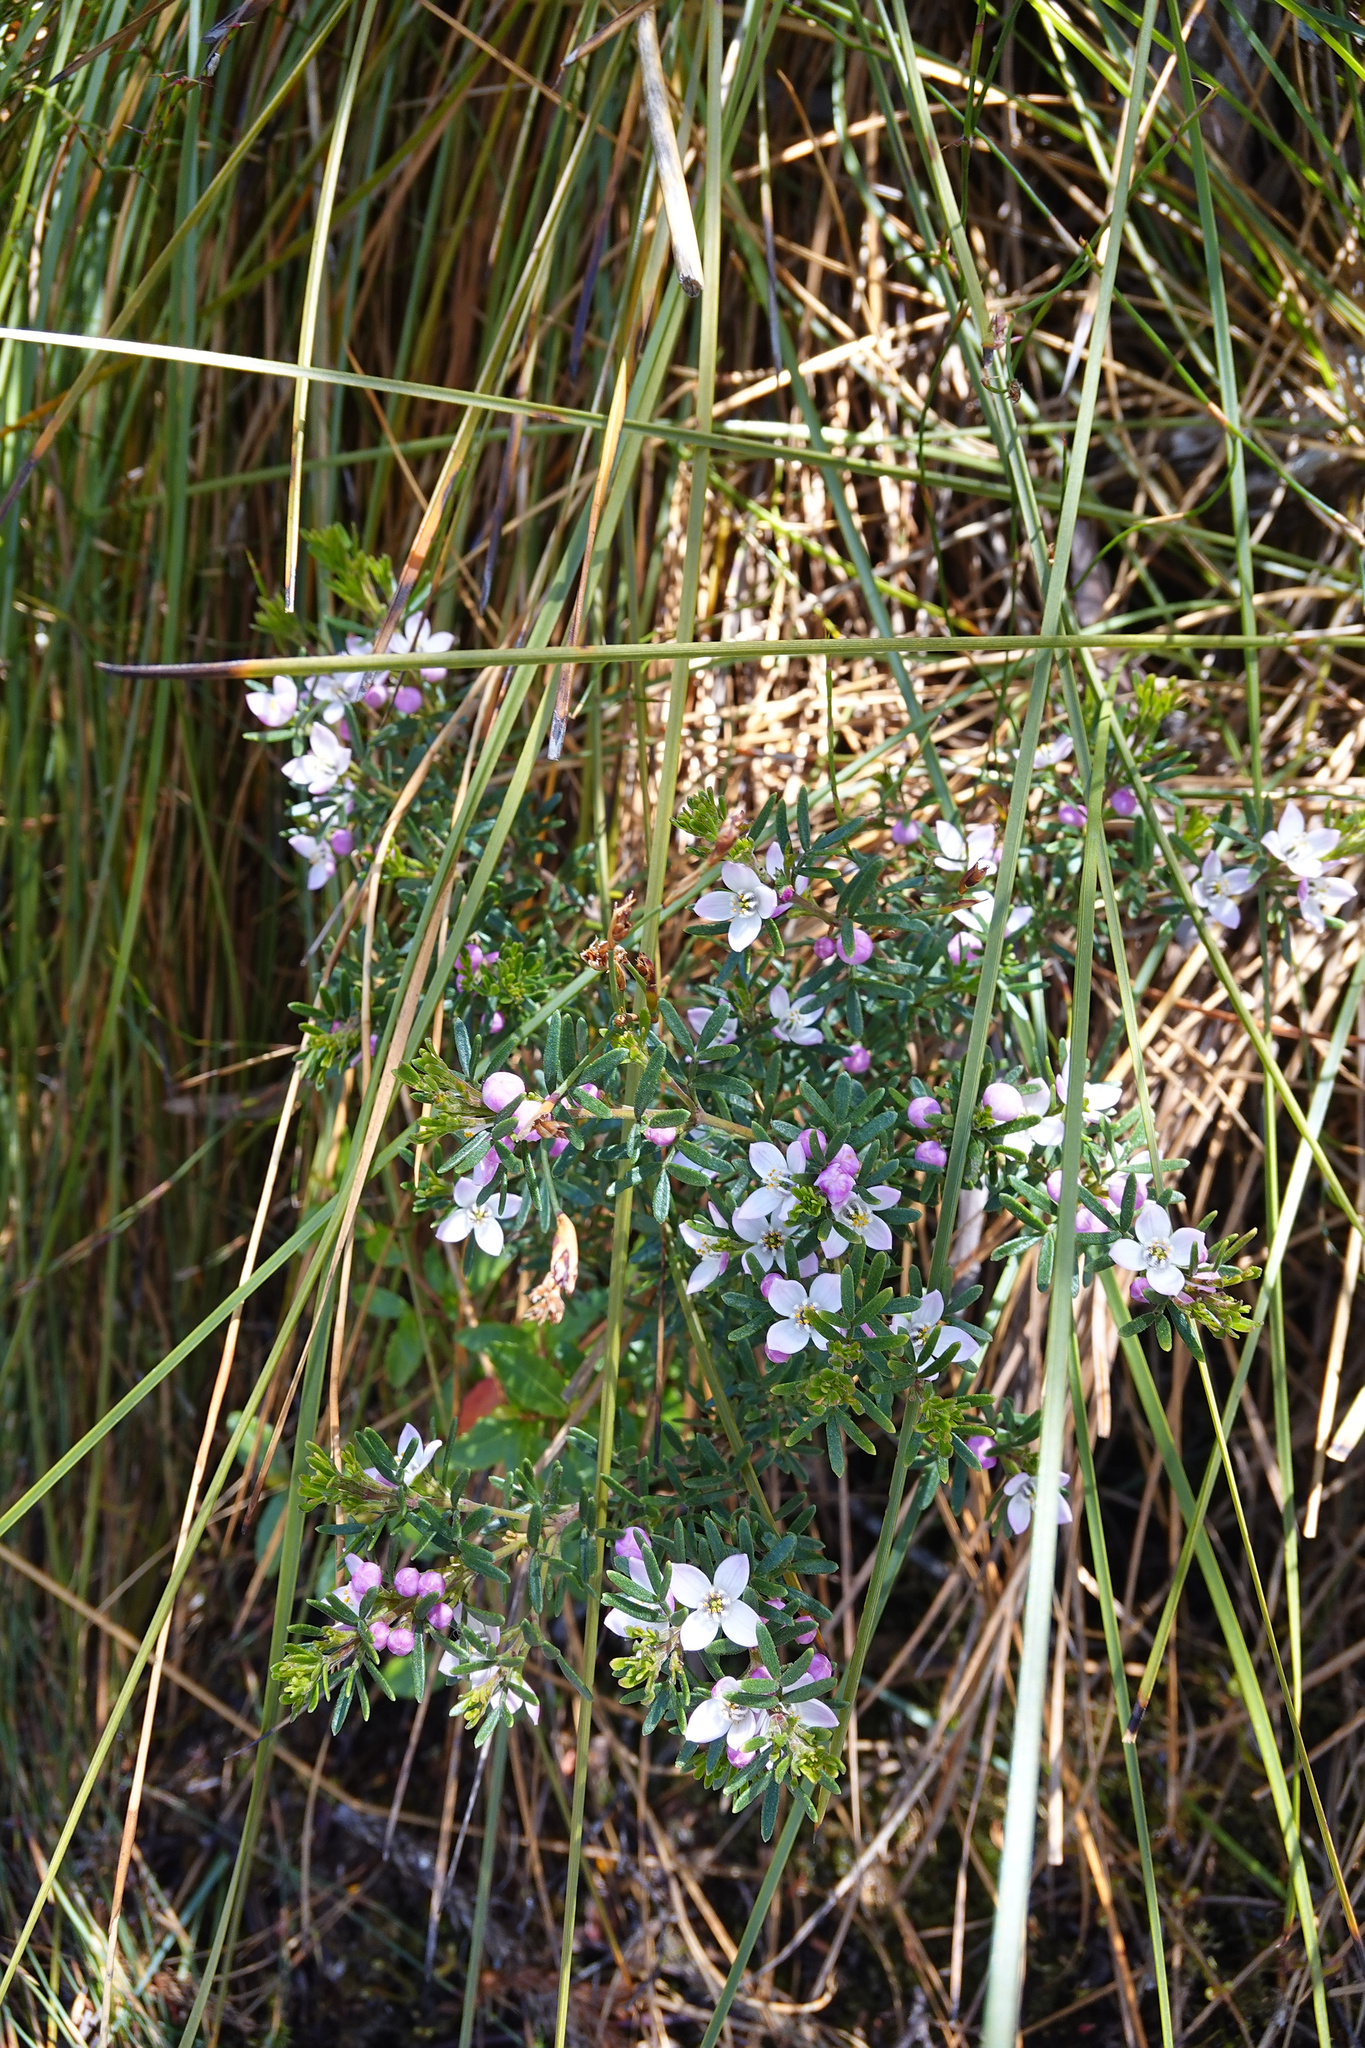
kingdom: Plantae
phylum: Tracheophyta
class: Magnoliopsida
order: Sapindales
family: Rutaceae
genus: Boronia
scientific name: Boronia citriodora
